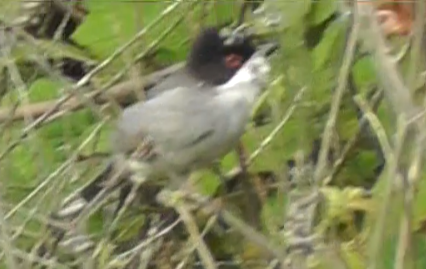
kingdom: Animalia
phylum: Chordata
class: Aves
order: Passeriformes
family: Sylviidae
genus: Curruca
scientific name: Curruca melanocephala
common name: Sardinian warbler
